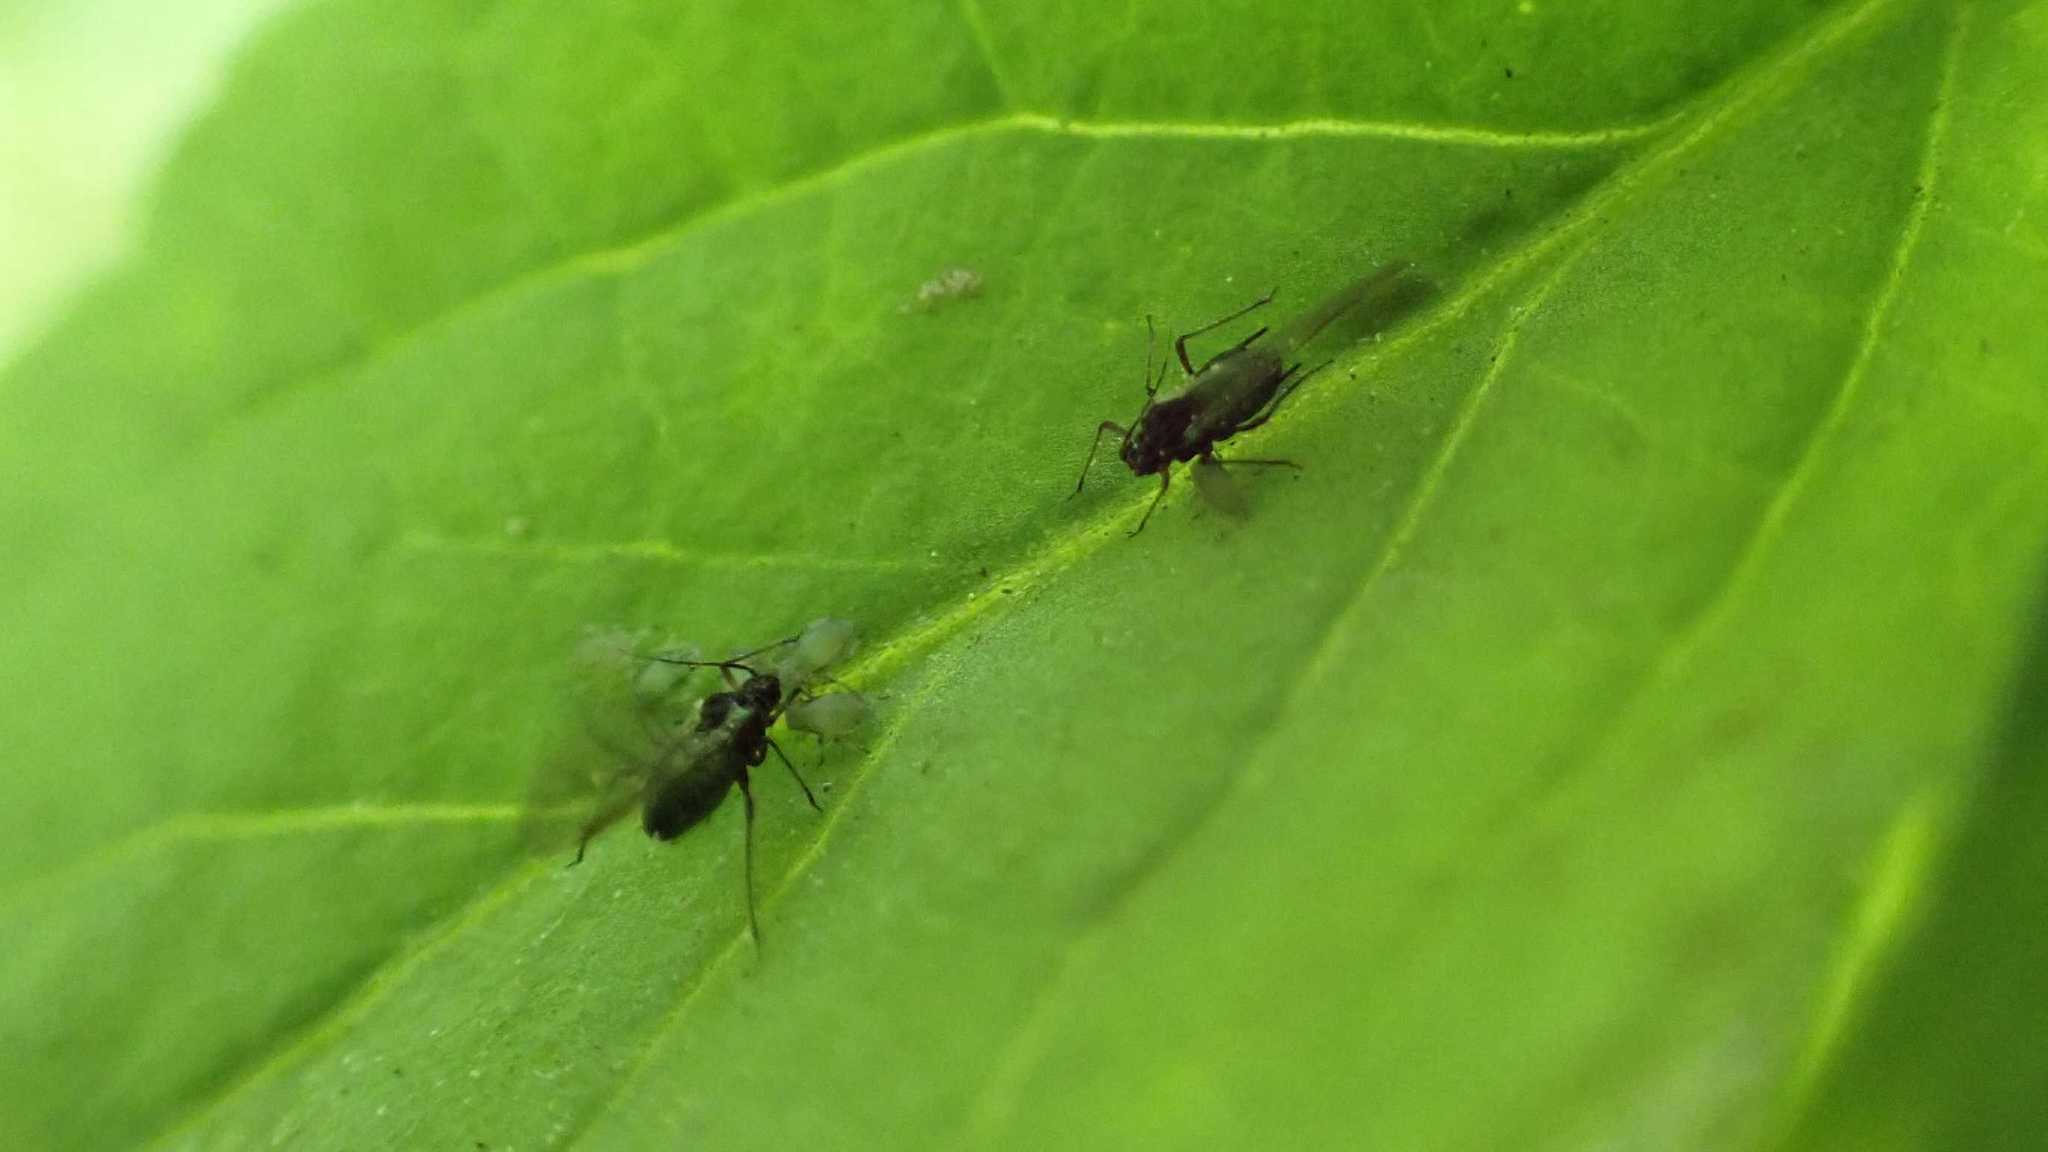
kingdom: Animalia
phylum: Arthropoda
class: Insecta
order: Hemiptera
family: Aphididae
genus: Aphis
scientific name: Aphis sambuci
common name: Elder aphid
